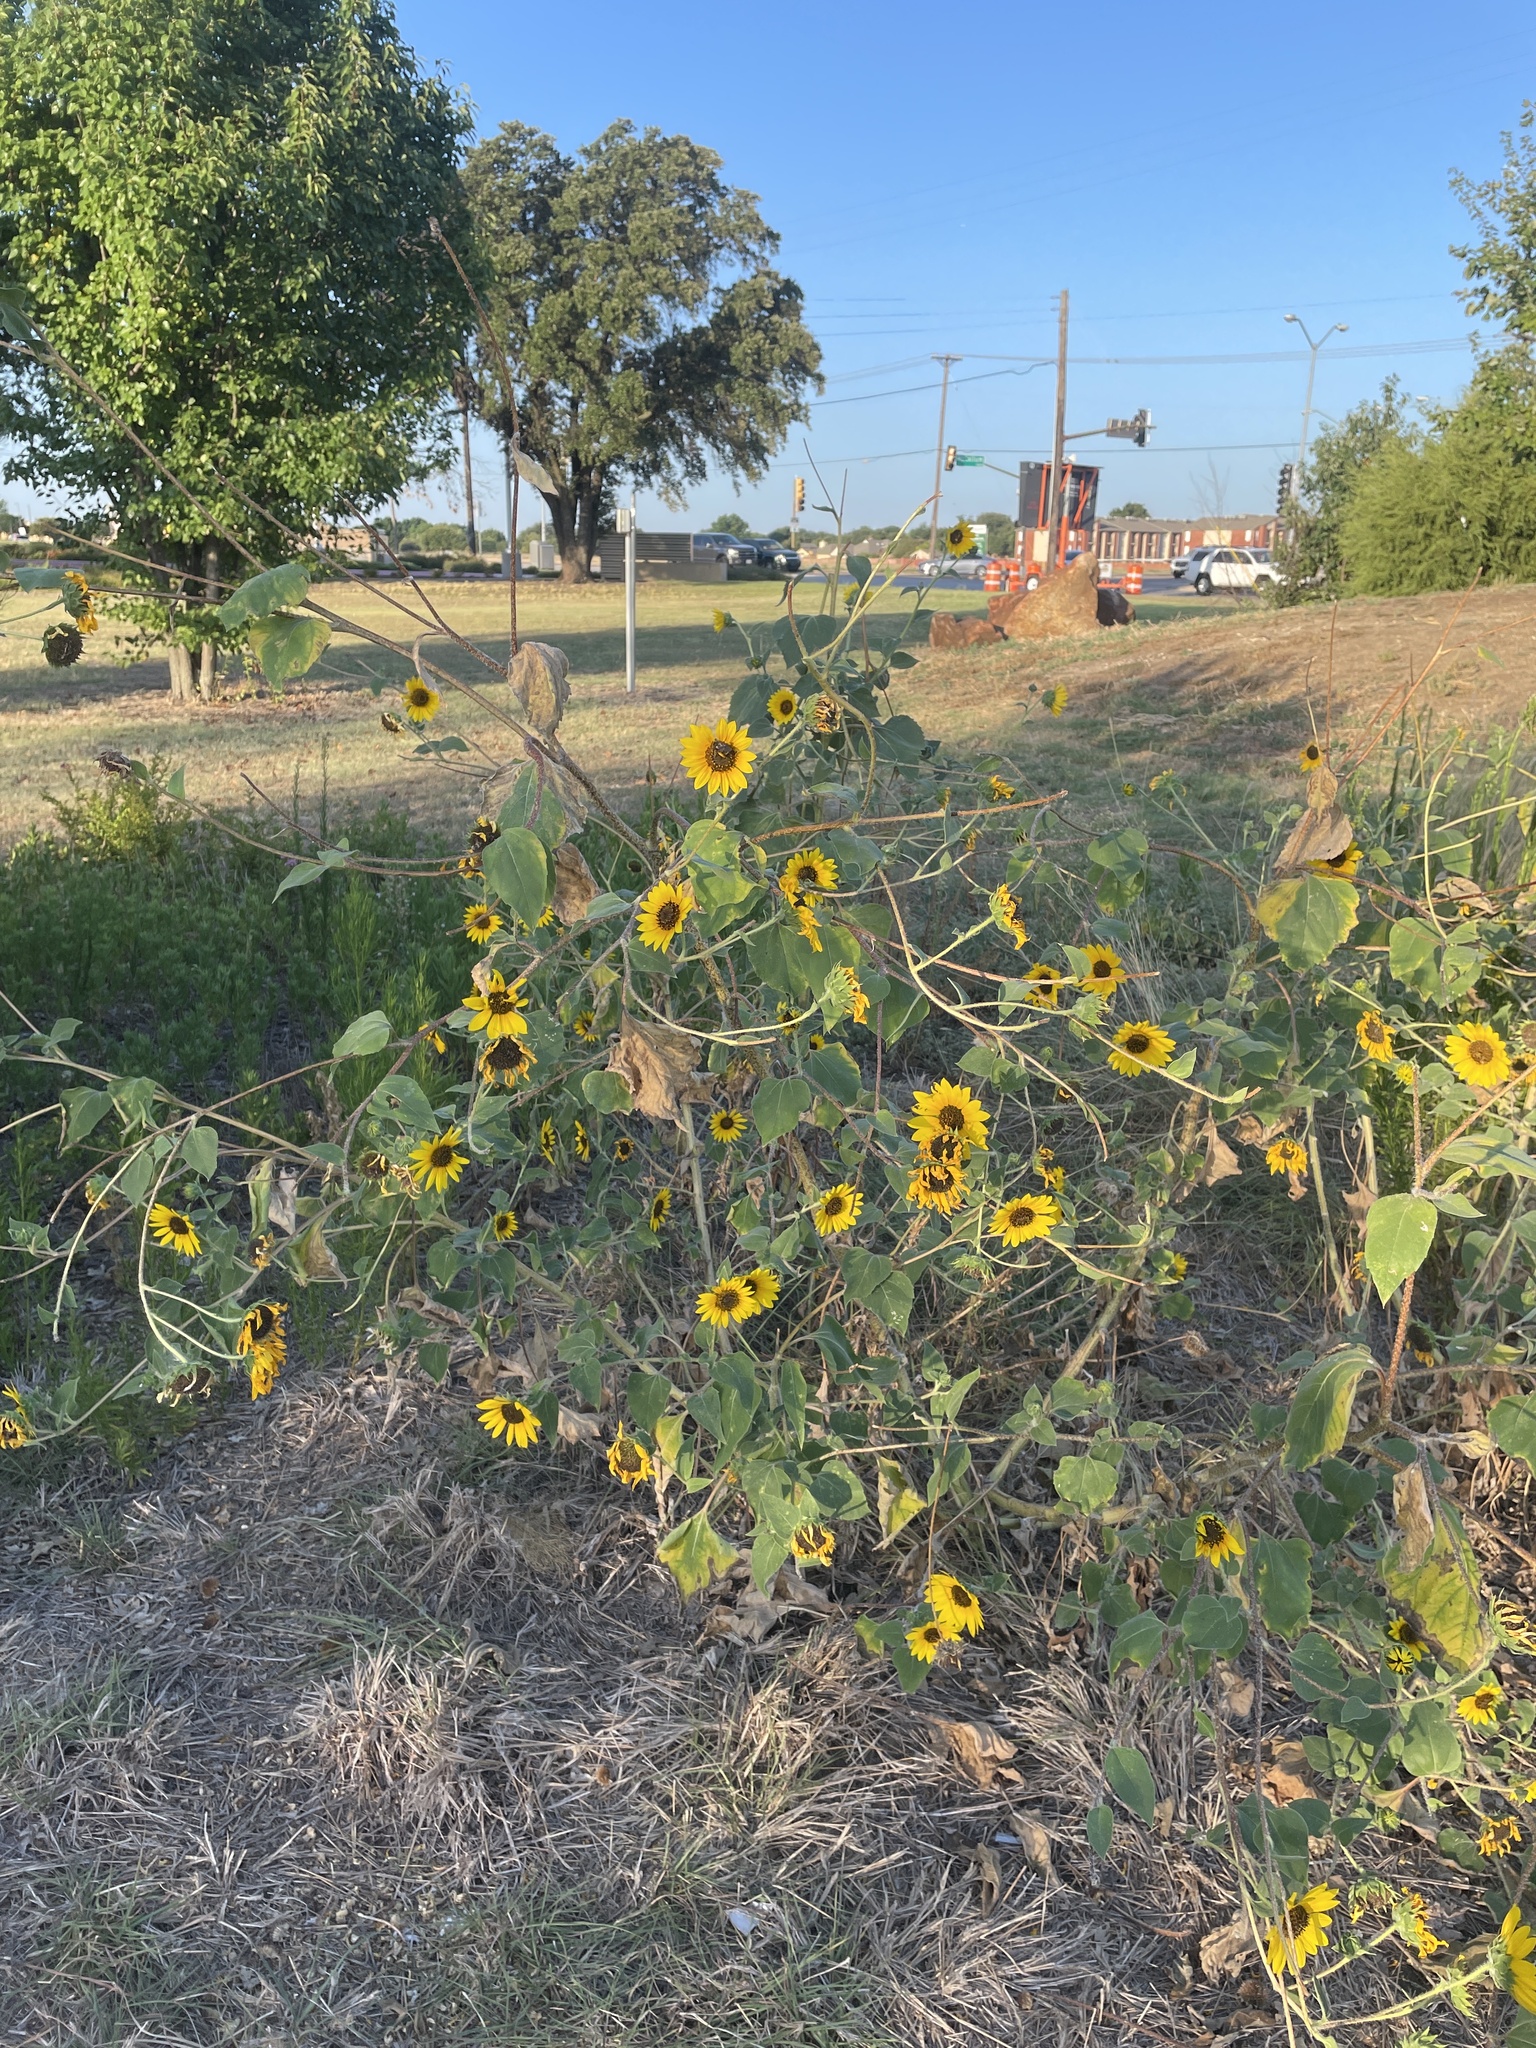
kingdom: Plantae
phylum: Tracheophyta
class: Magnoliopsida
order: Asterales
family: Asteraceae
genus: Helianthus
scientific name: Helianthus annuus
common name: Sunflower
